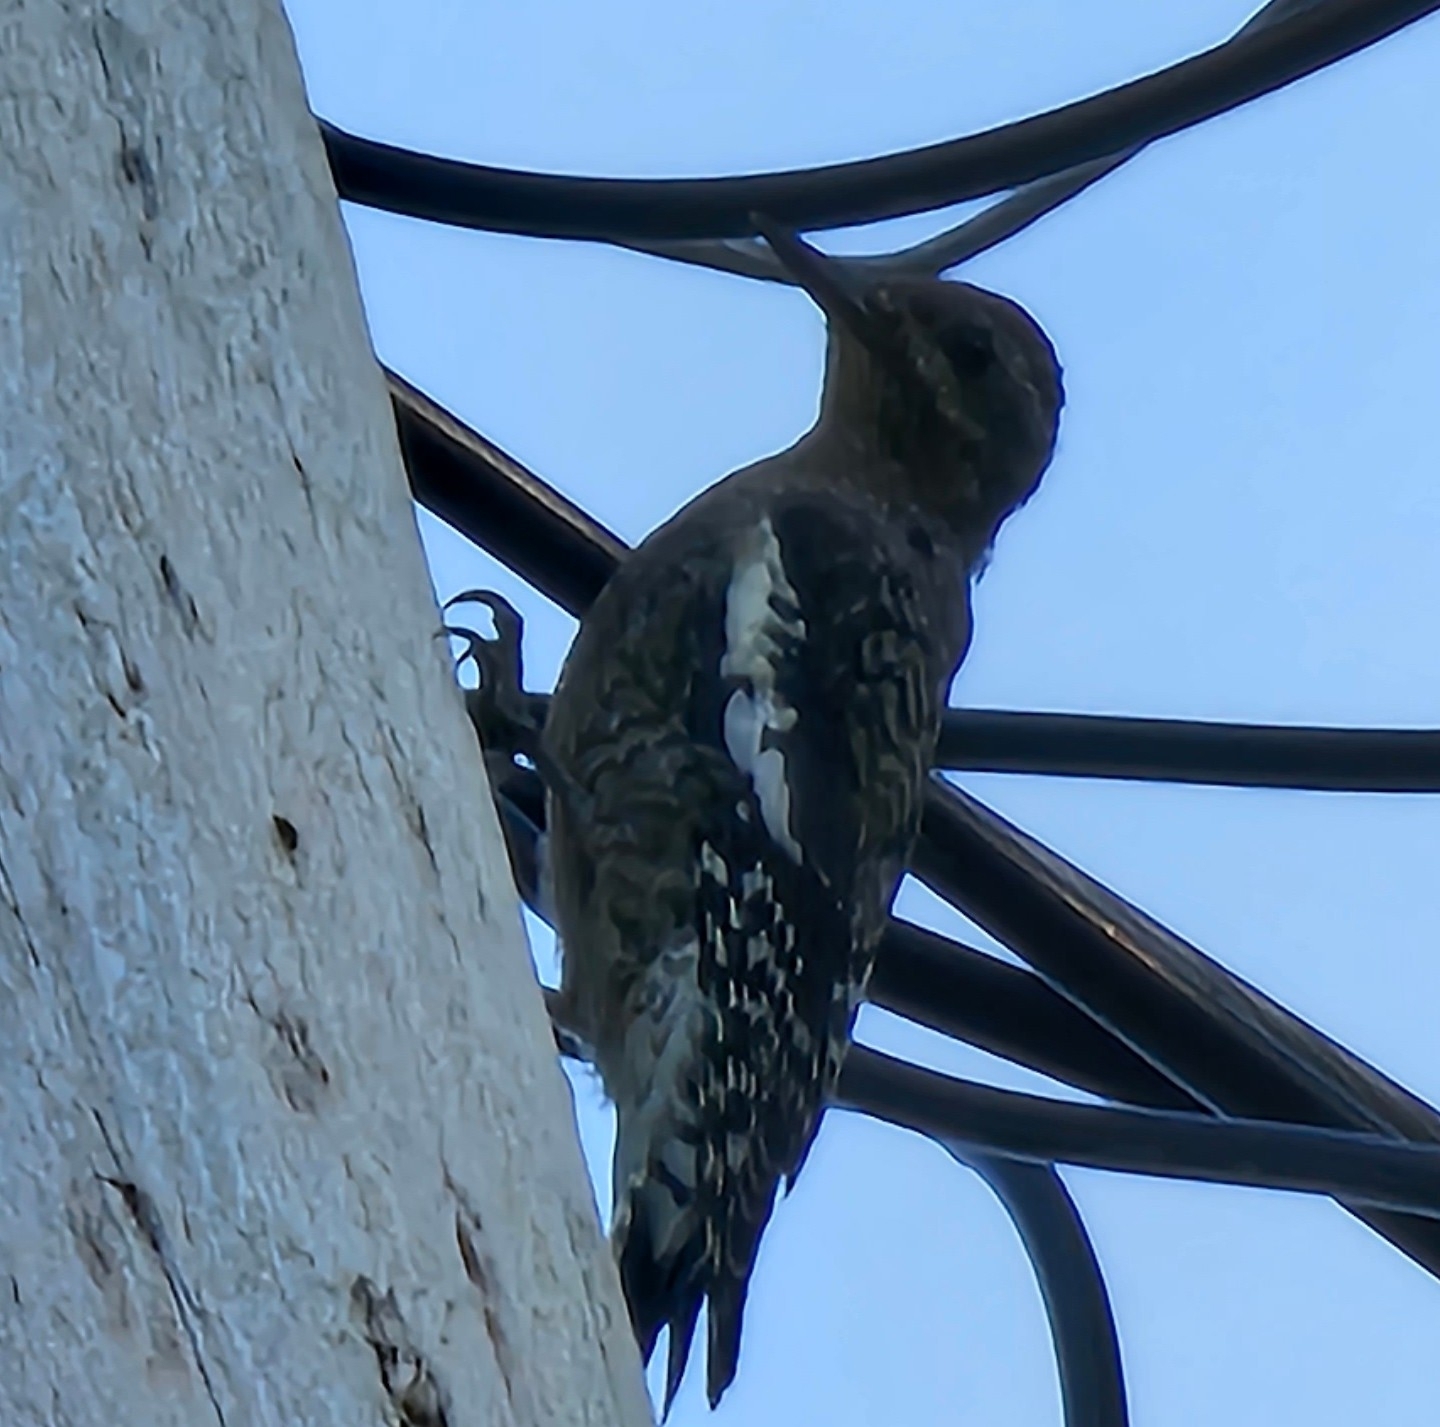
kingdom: Animalia
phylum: Chordata
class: Aves
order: Piciformes
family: Picidae
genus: Sphyrapicus
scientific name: Sphyrapicus varius
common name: Yellow-bellied sapsucker
